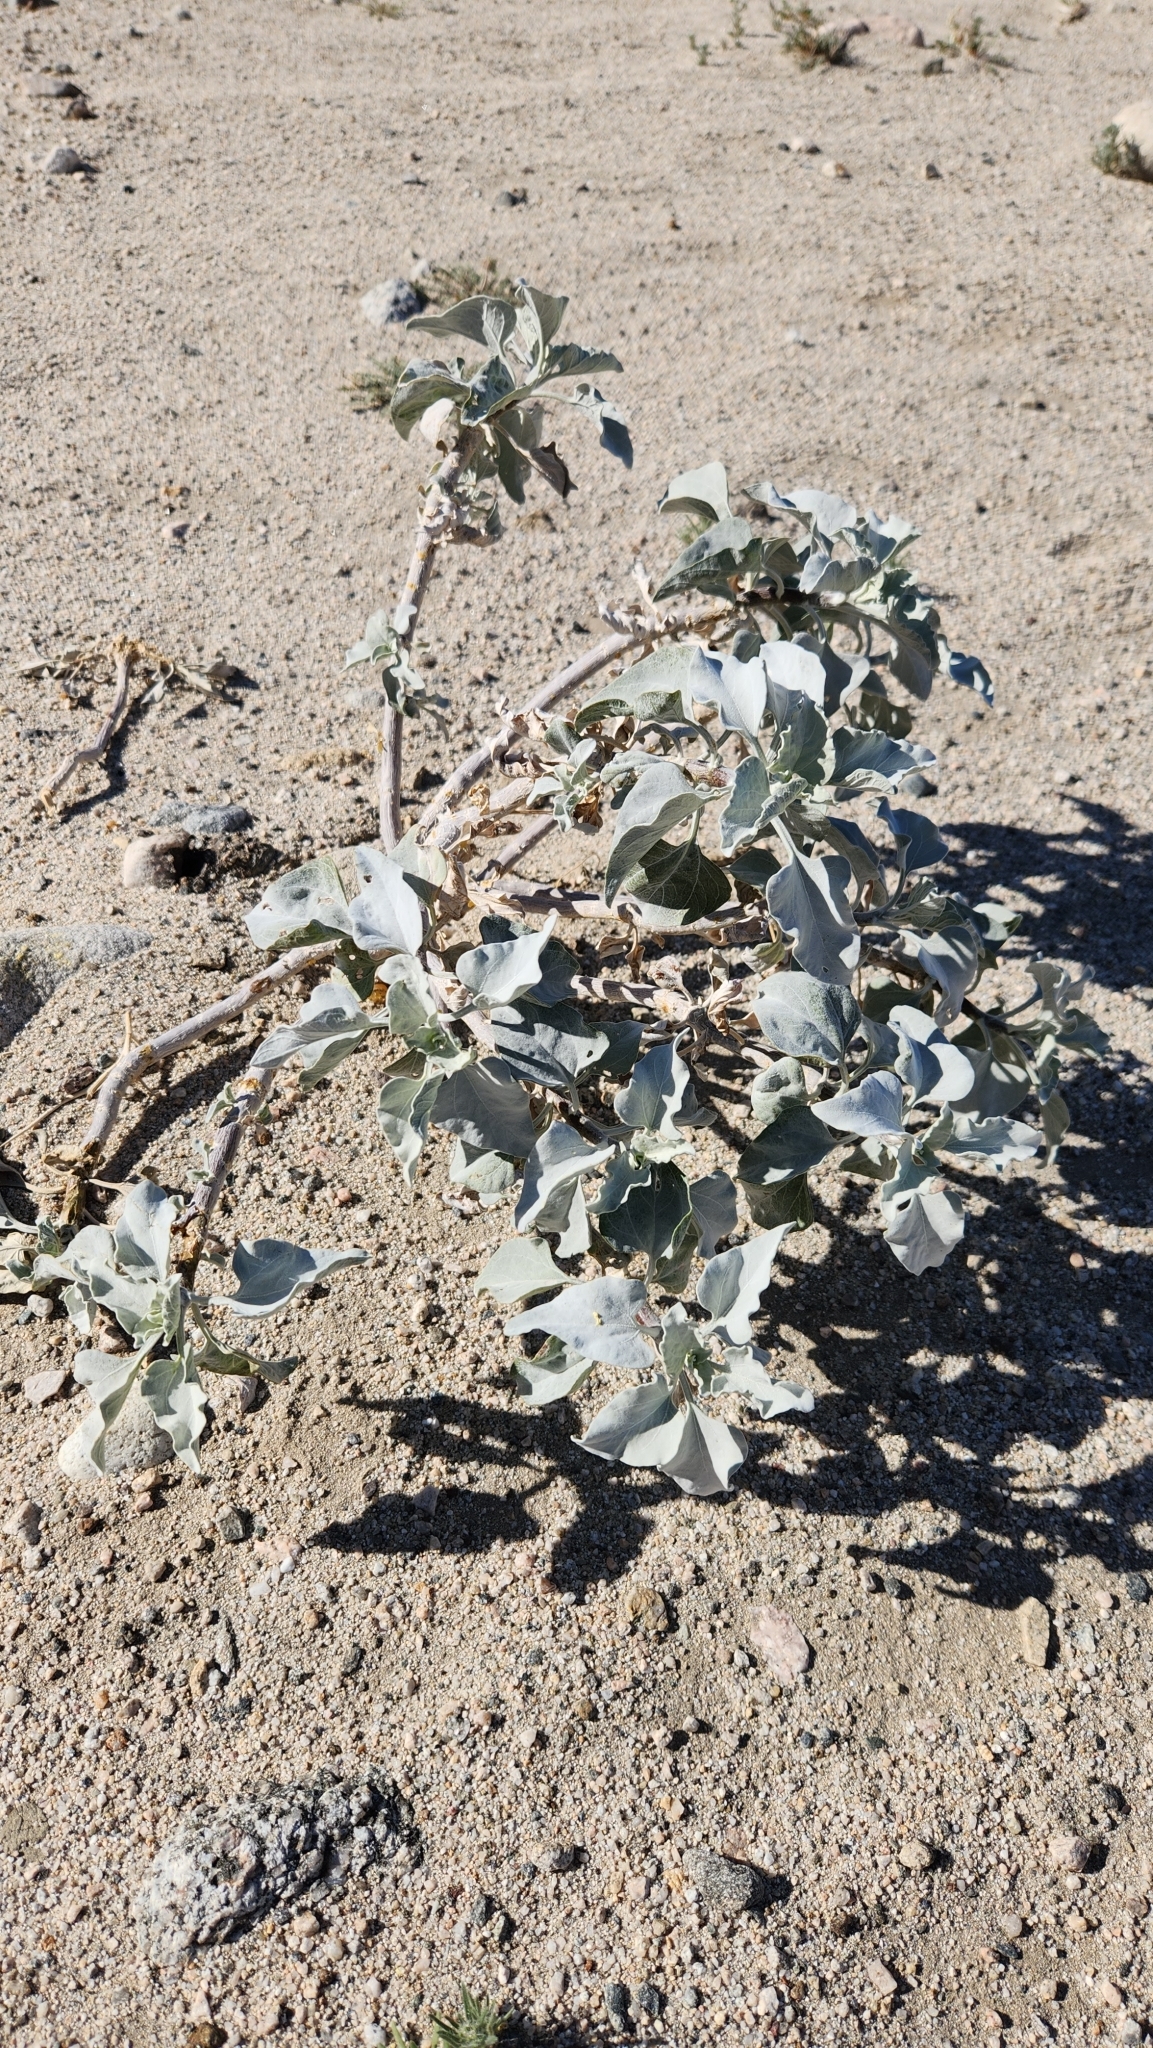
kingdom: Plantae
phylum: Tracheophyta
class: Magnoliopsida
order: Asterales
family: Asteraceae
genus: Encelia
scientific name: Encelia farinosa
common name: Brittlebush
